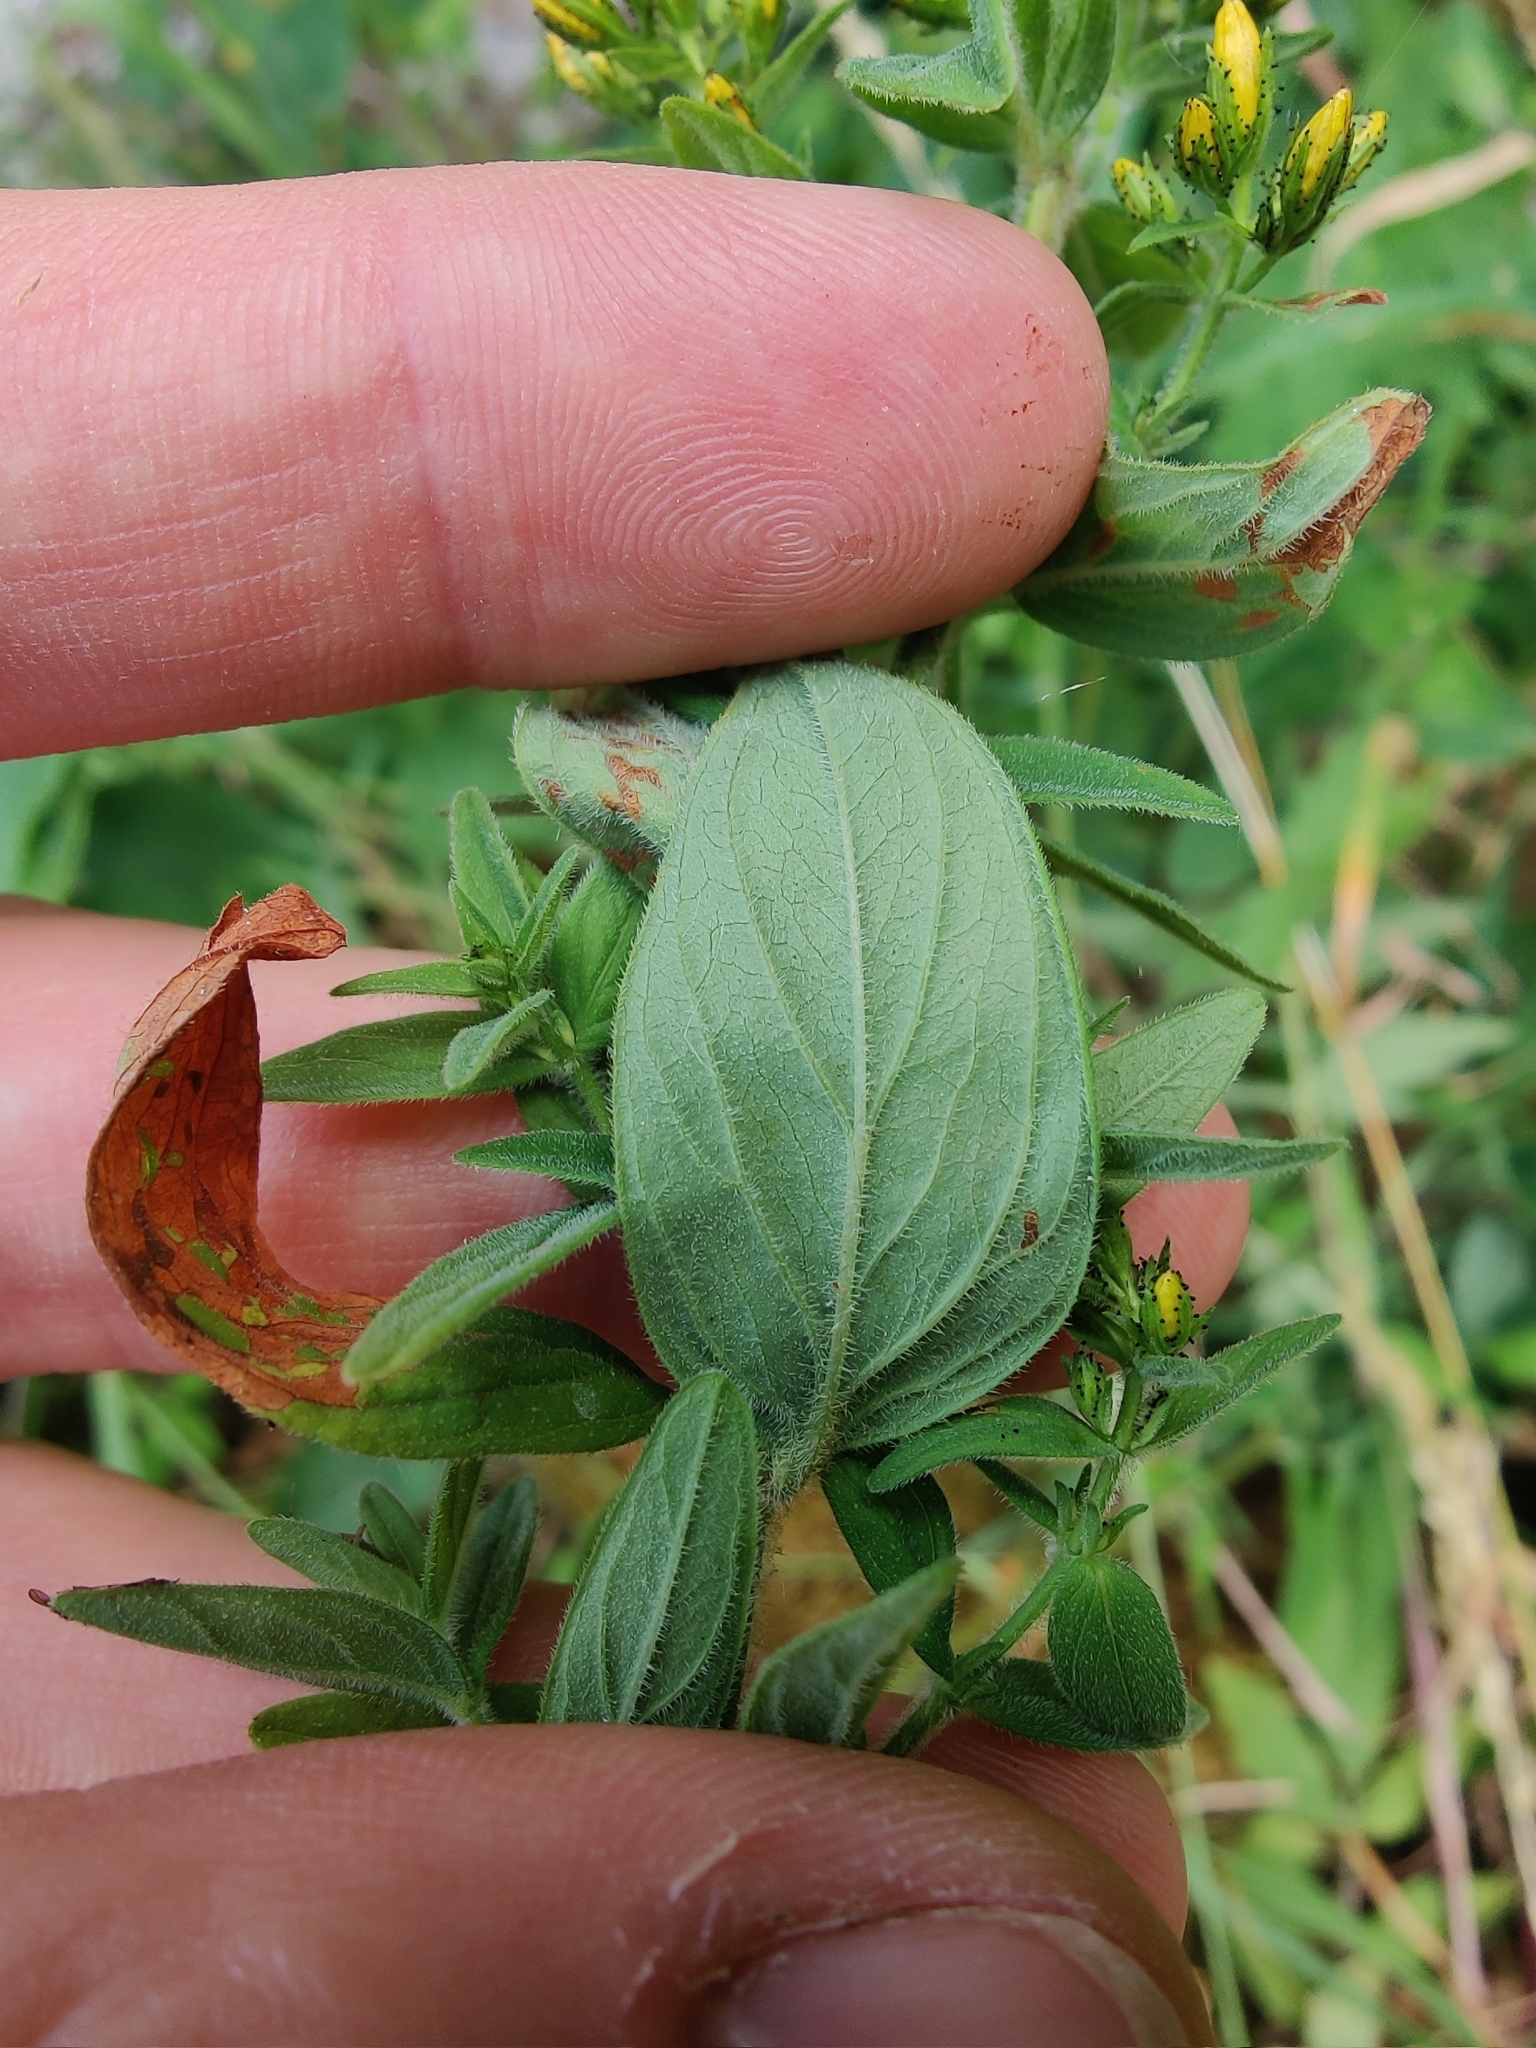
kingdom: Plantae
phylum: Tracheophyta
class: Magnoliopsida
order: Malpighiales
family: Hypericaceae
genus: Hypericum
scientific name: Hypericum hirsutum
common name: Hairy st. john's-wort
